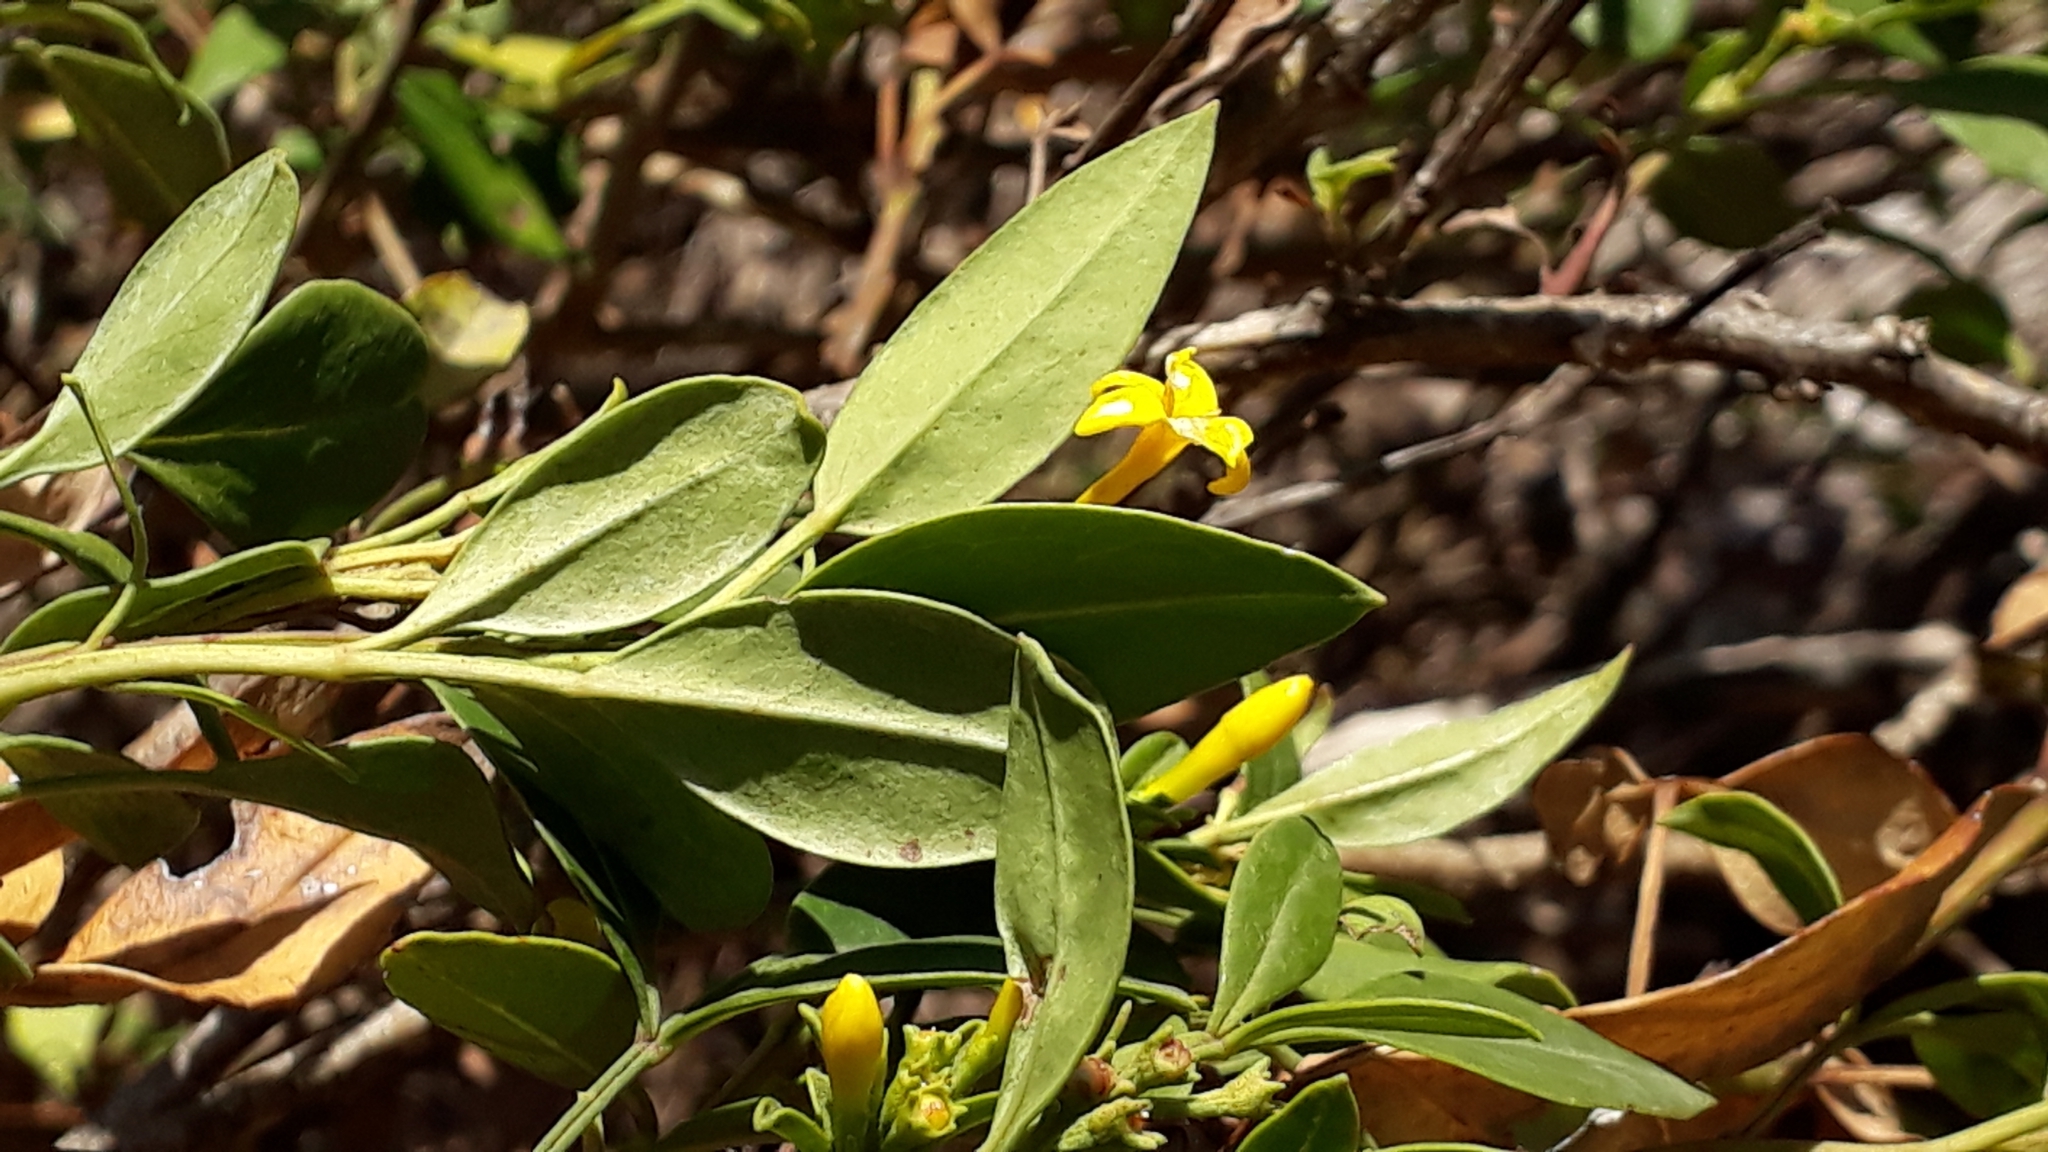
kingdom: Plantae
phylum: Tracheophyta
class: Magnoliopsida
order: Lamiales
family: Oleaceae
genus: Chrysojasminum
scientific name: Chrysojasminum odoratissimum
